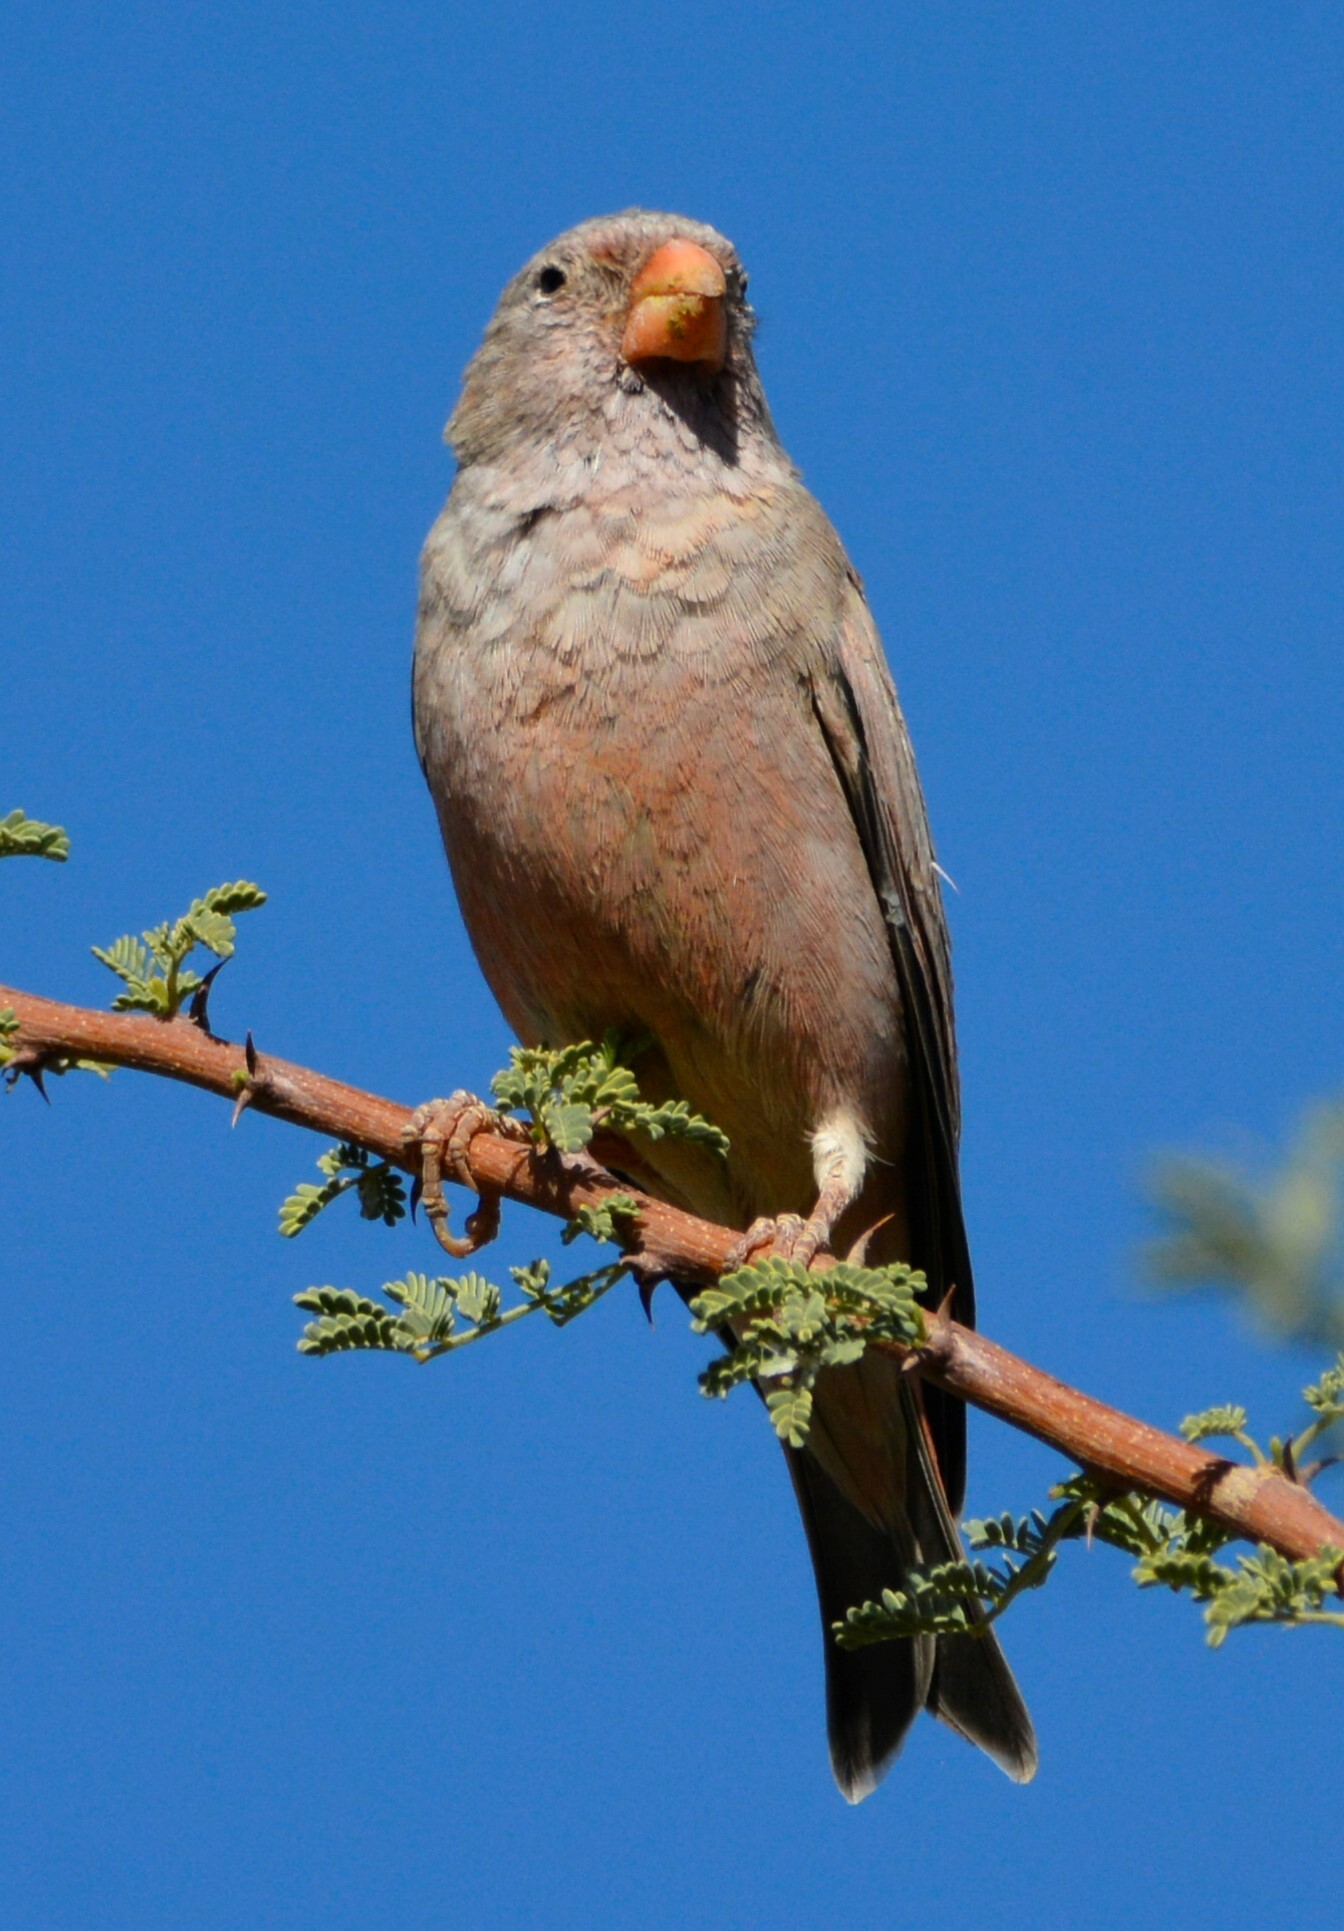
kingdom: Animalia
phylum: Chordata
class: Aves
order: Passeriformes
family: Fringillidae
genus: Bucanetes
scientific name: Bucanetes githagineus
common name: Trumpeter finch
